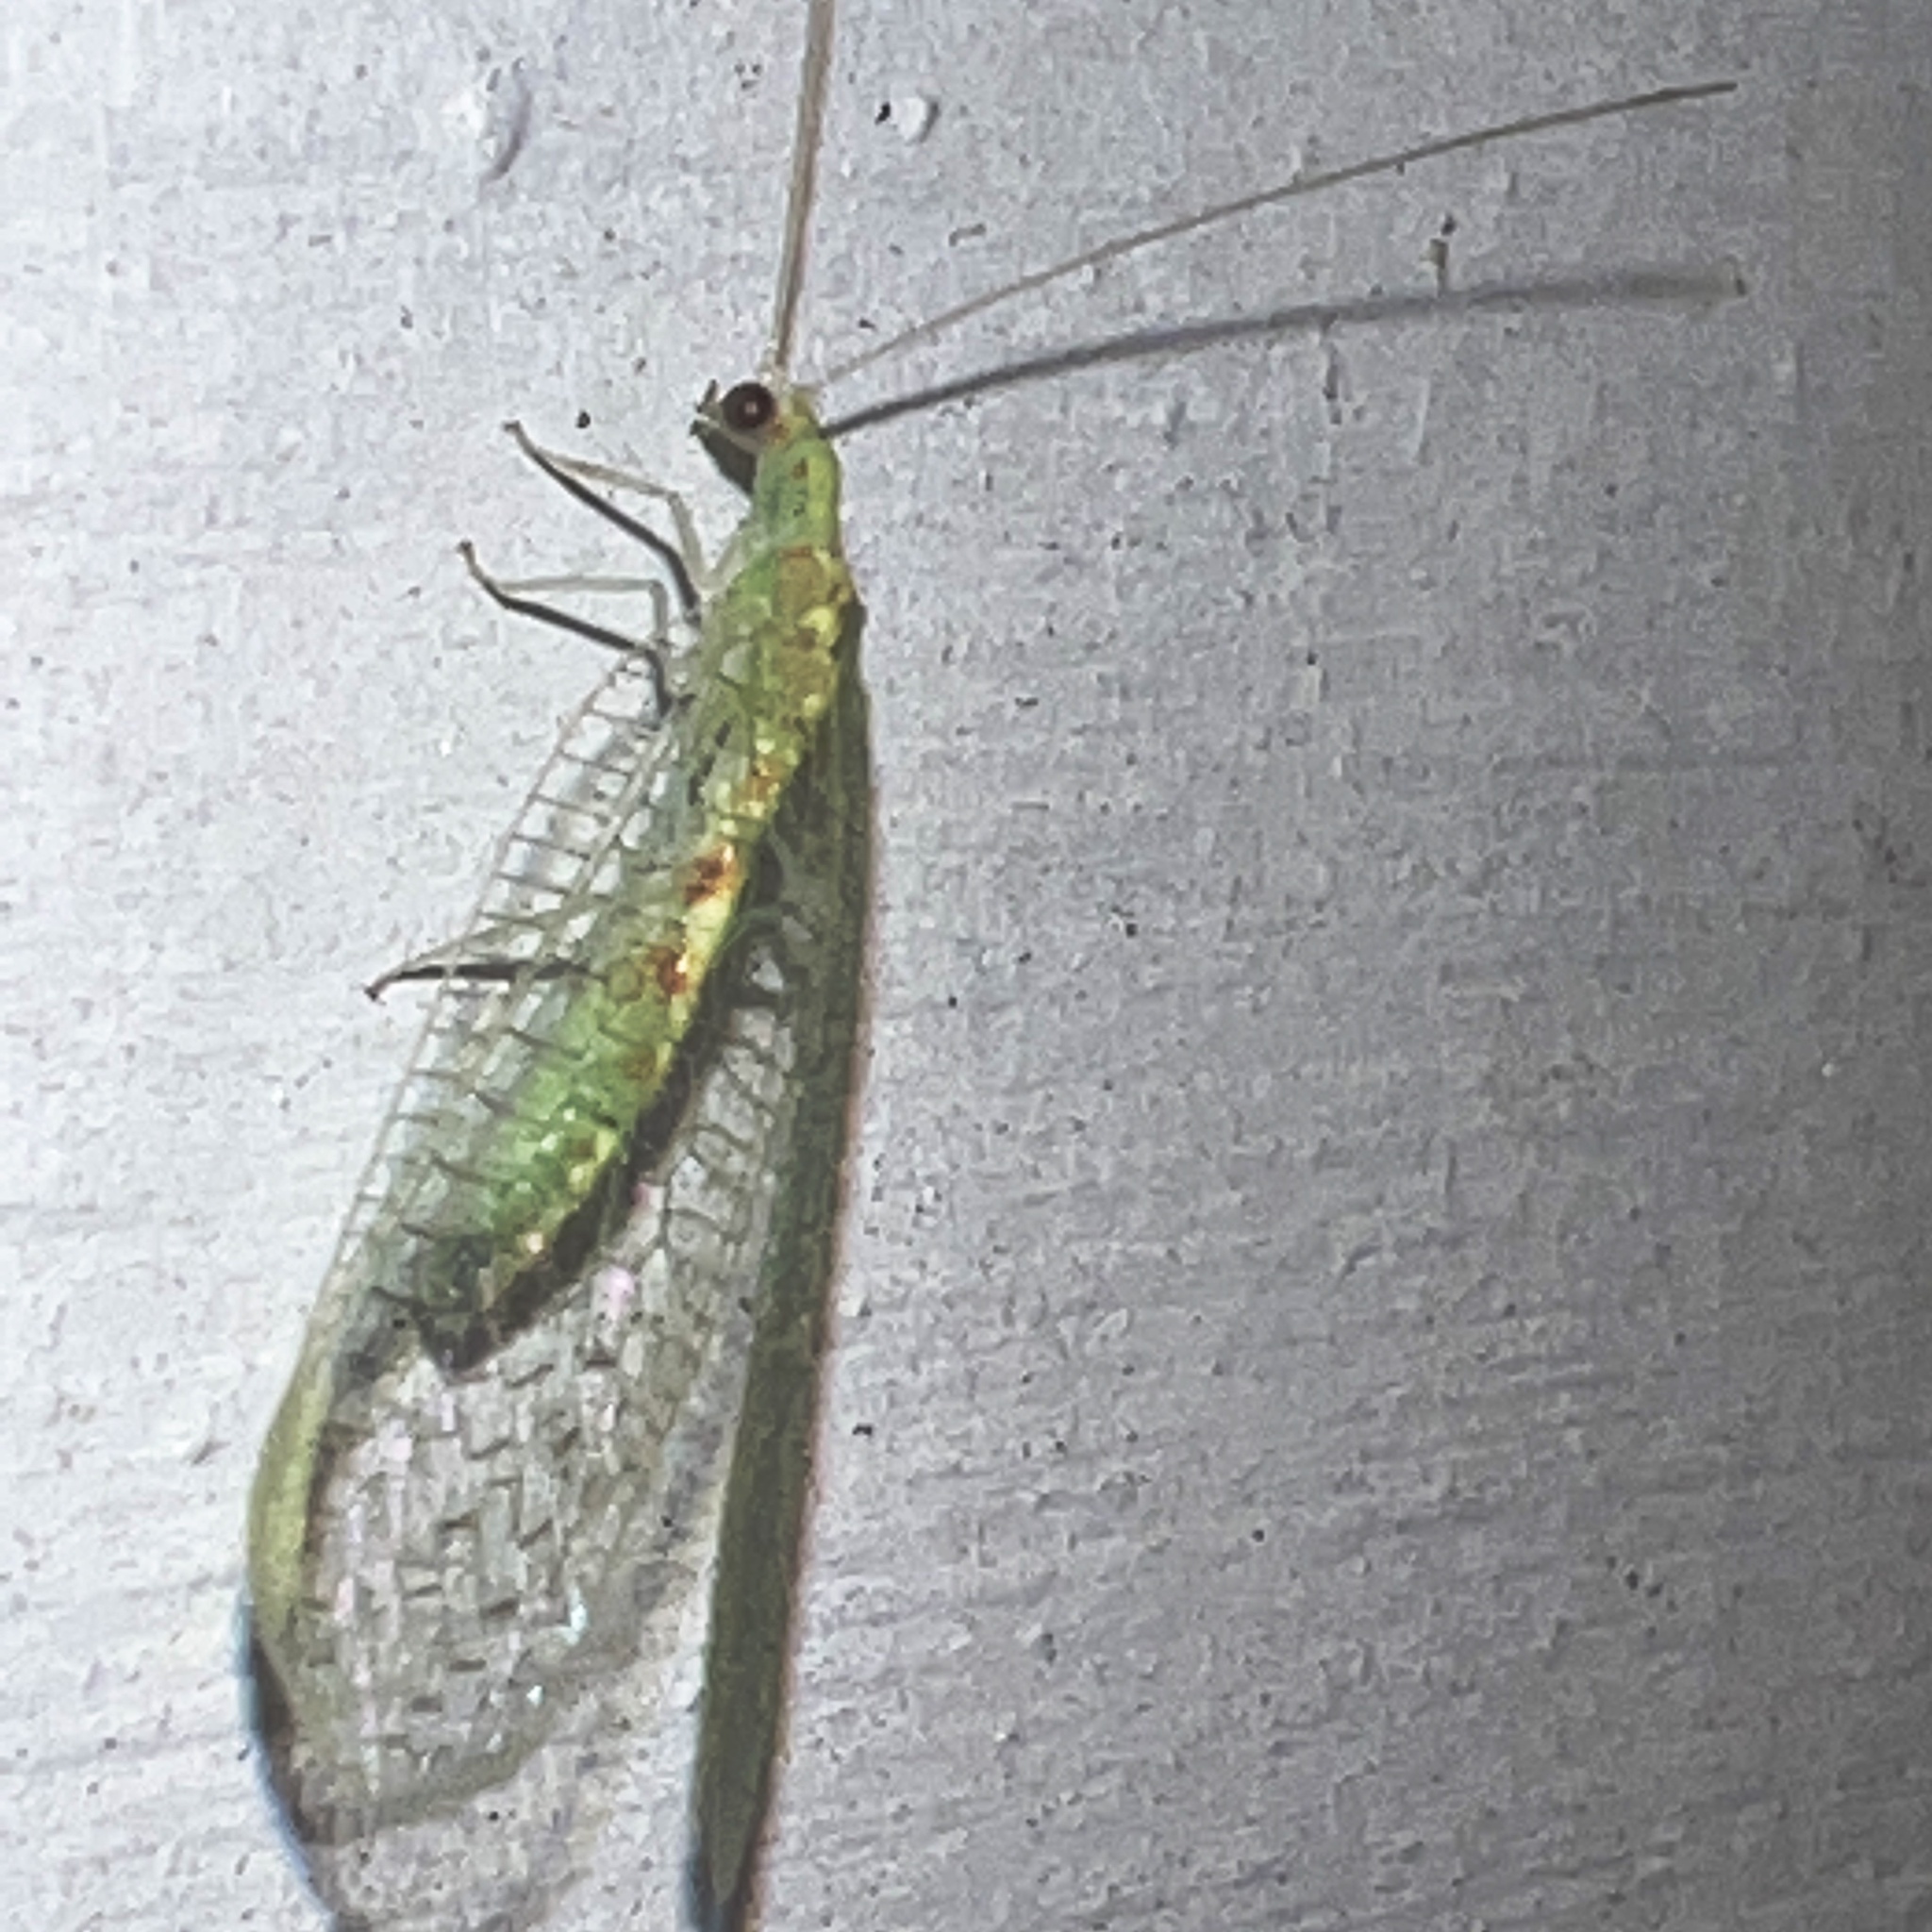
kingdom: Animalia
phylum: Arthropoda
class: Insecta
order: Neuroptera
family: Chrysopidae
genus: Chrysopa
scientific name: Chrysopa quadripunctata
